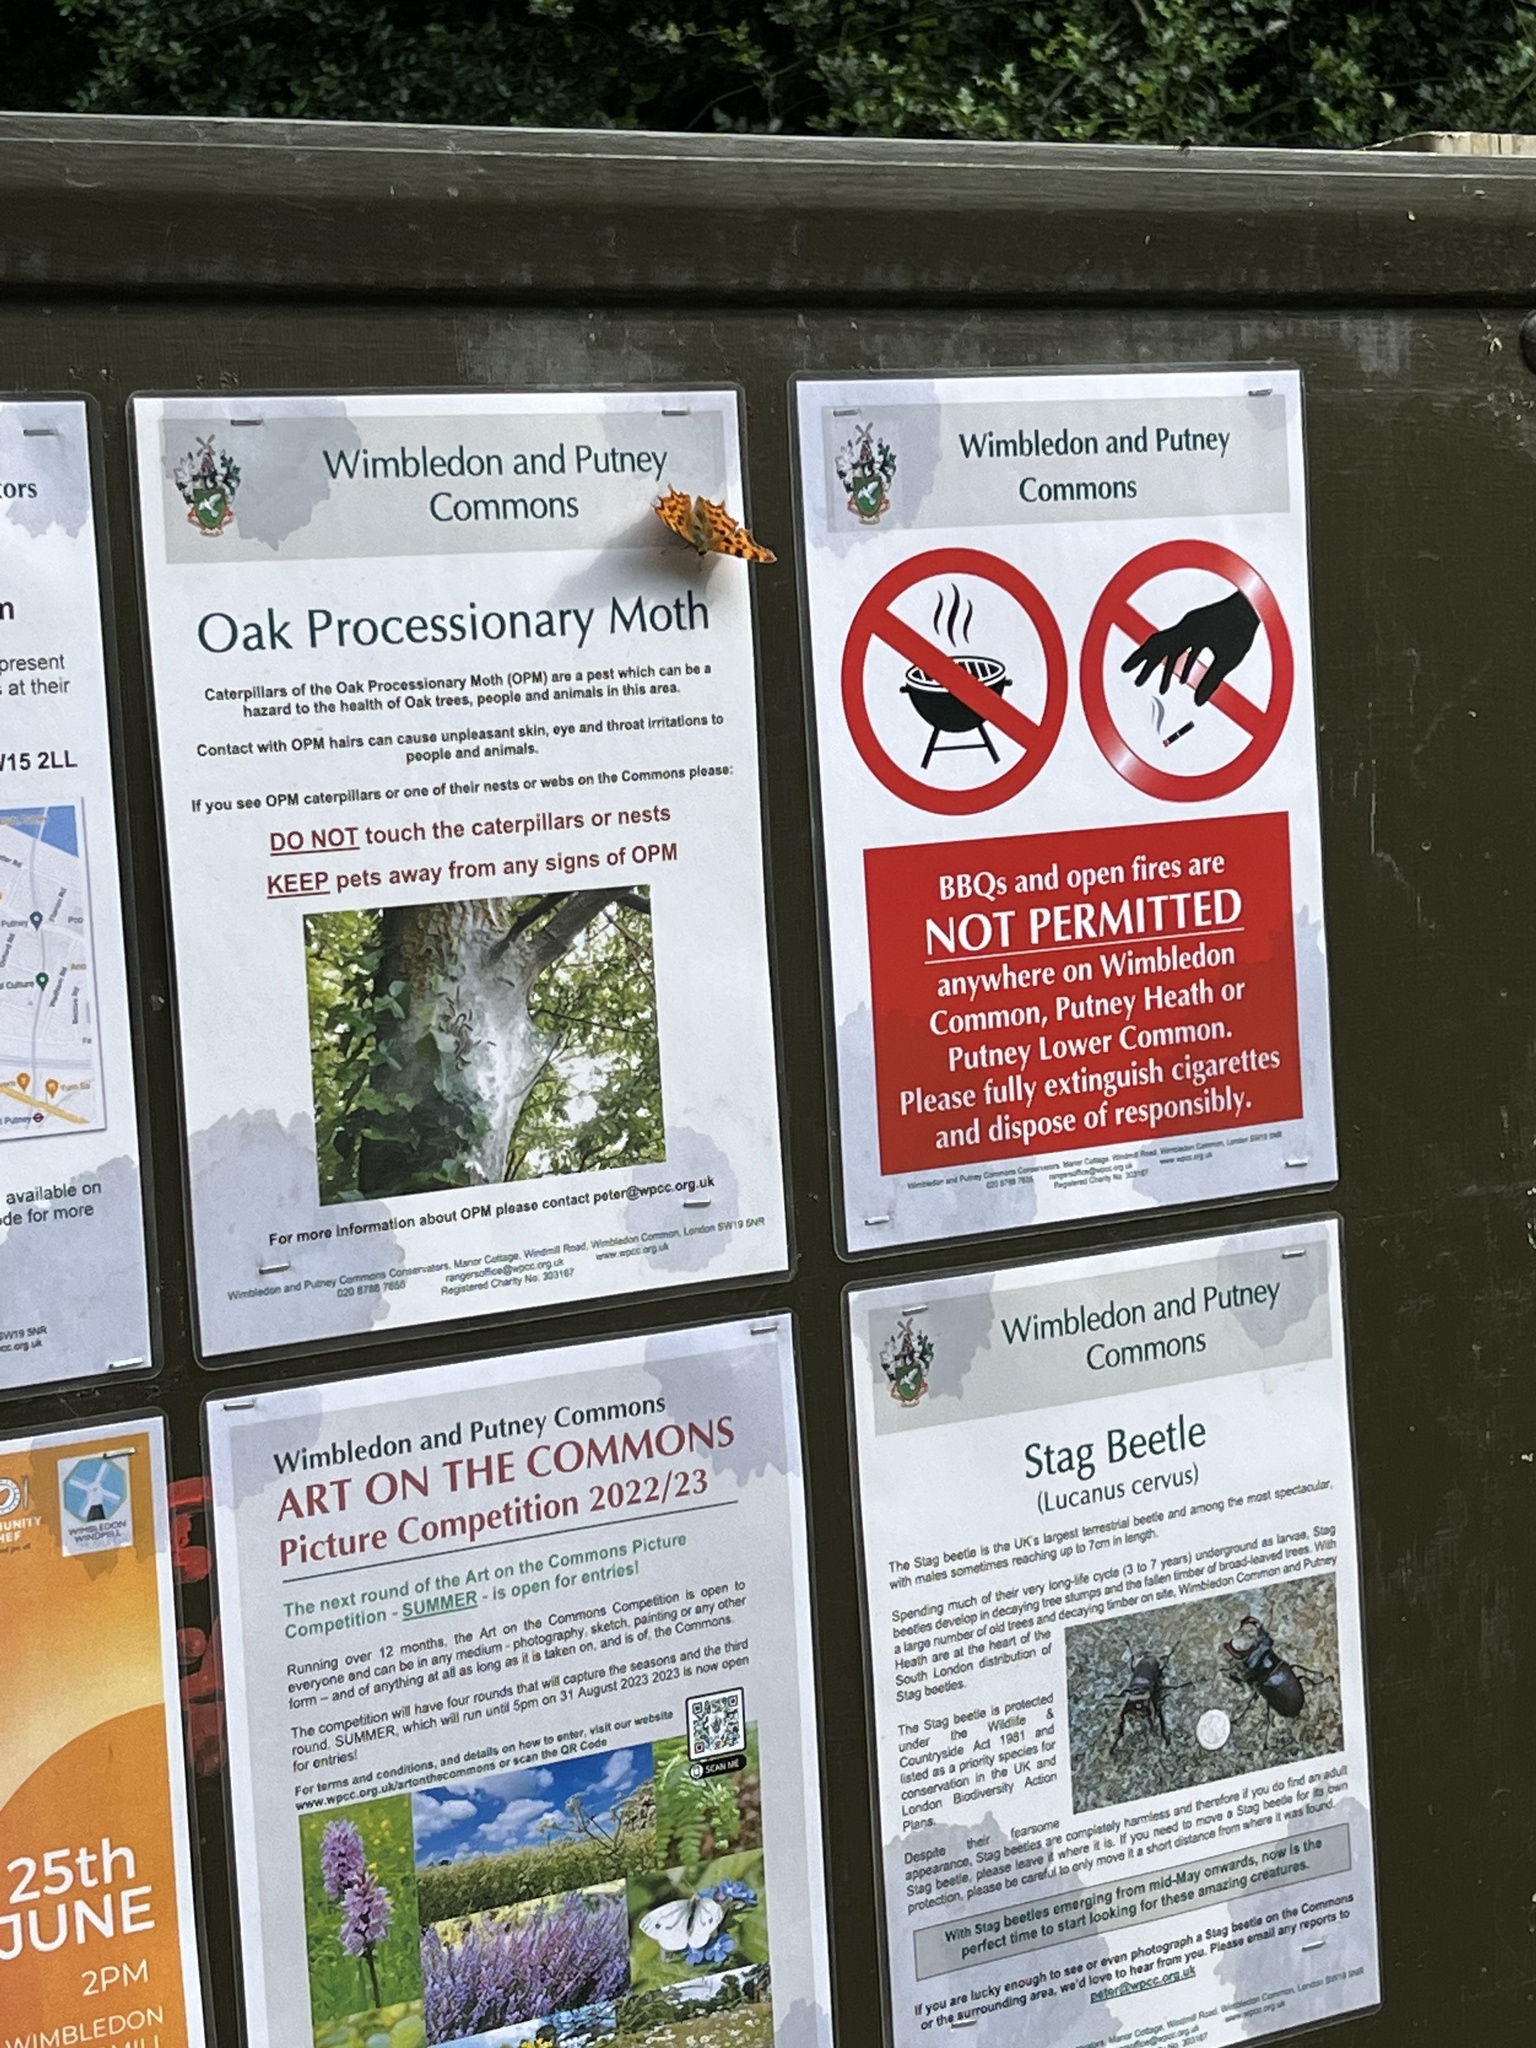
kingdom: Animalia
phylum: Arthropoda
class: Insecta
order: Lepidoptera
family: Nymphalidae
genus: Polygonia
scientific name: Polygonia c-album
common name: Comma
